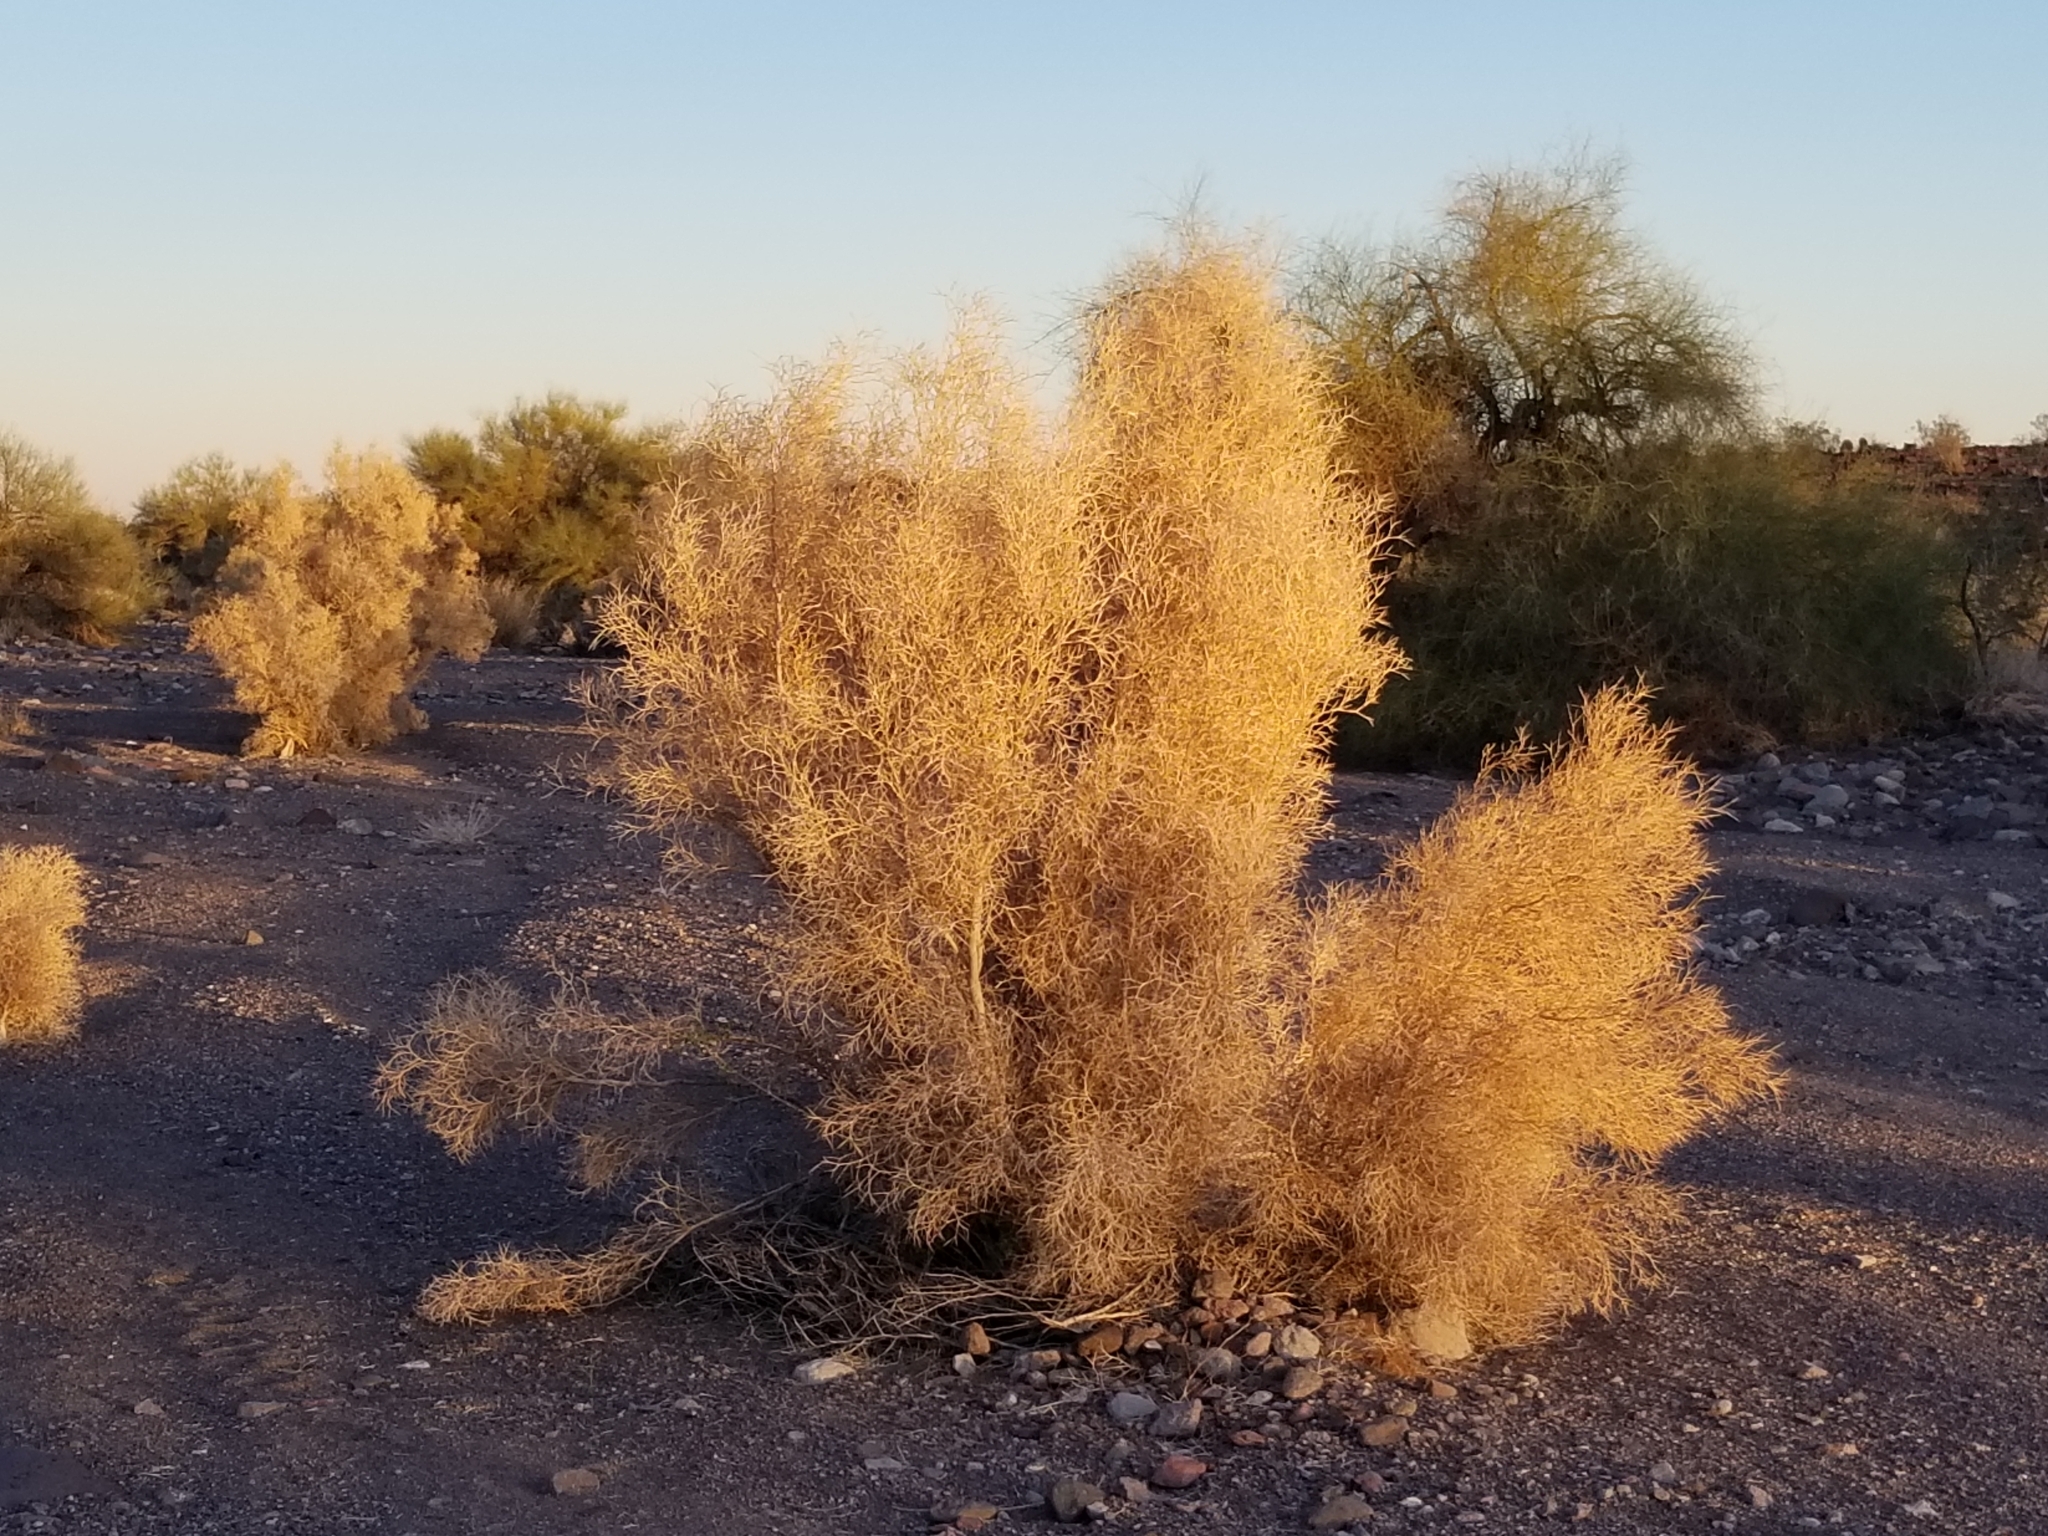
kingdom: Plantae
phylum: Tracheophyta
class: Magnoliopsida
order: Fabales
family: Fabaceae
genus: Psorothamnus
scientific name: Psorothamnus spinosus
